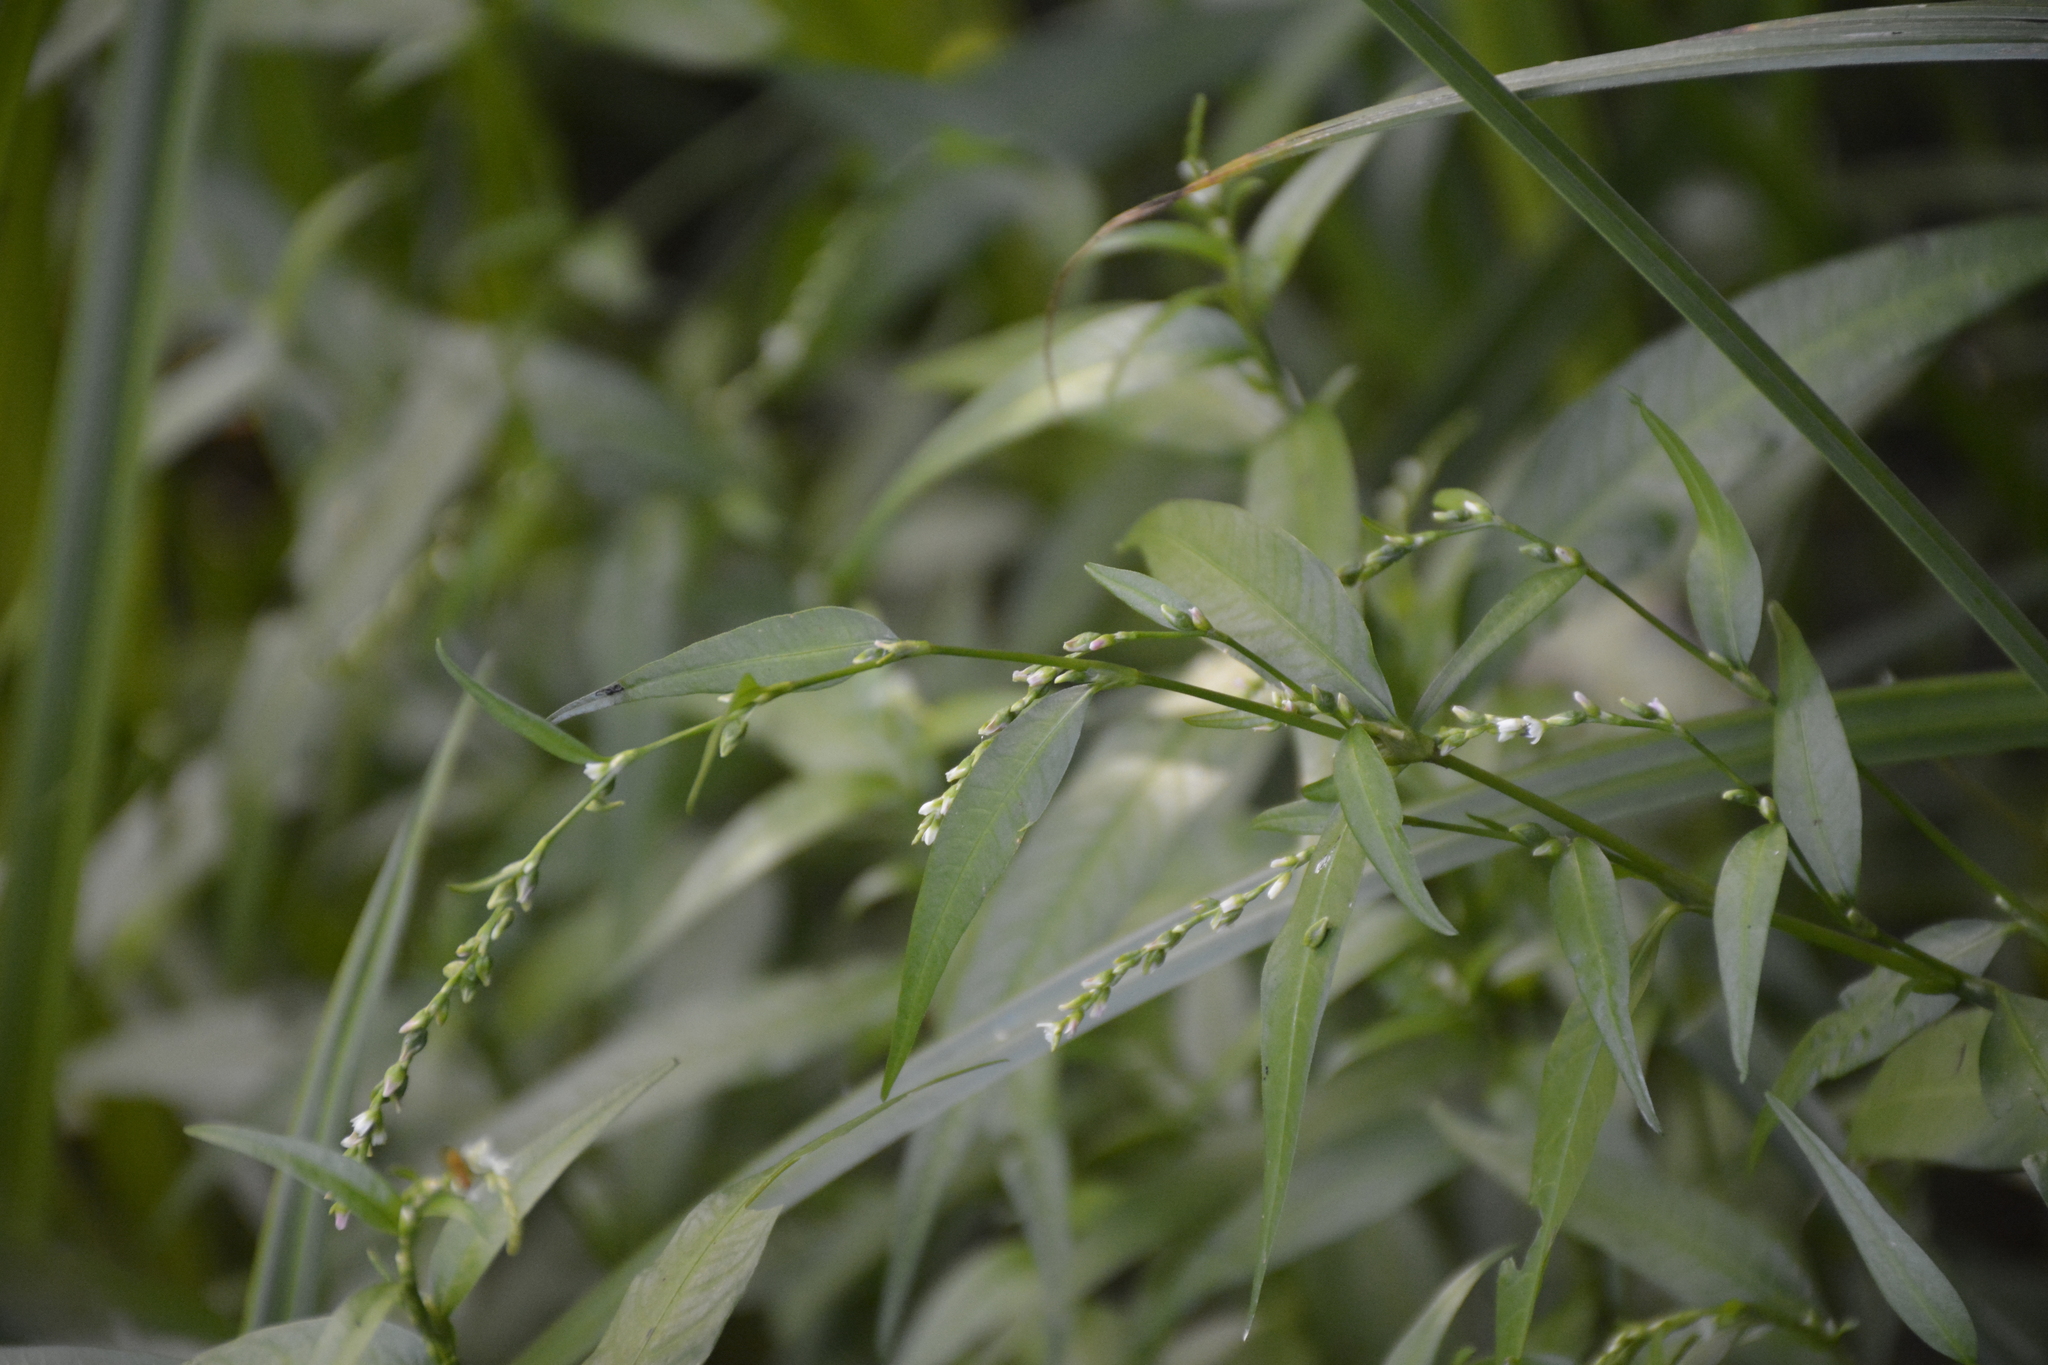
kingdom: Plantae
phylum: Tracheophyta
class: Magnoliopsida
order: Caryophyllales
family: Polygonaceae
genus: Persicaria
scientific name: Persicaria hydropiper
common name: Water-pepper
